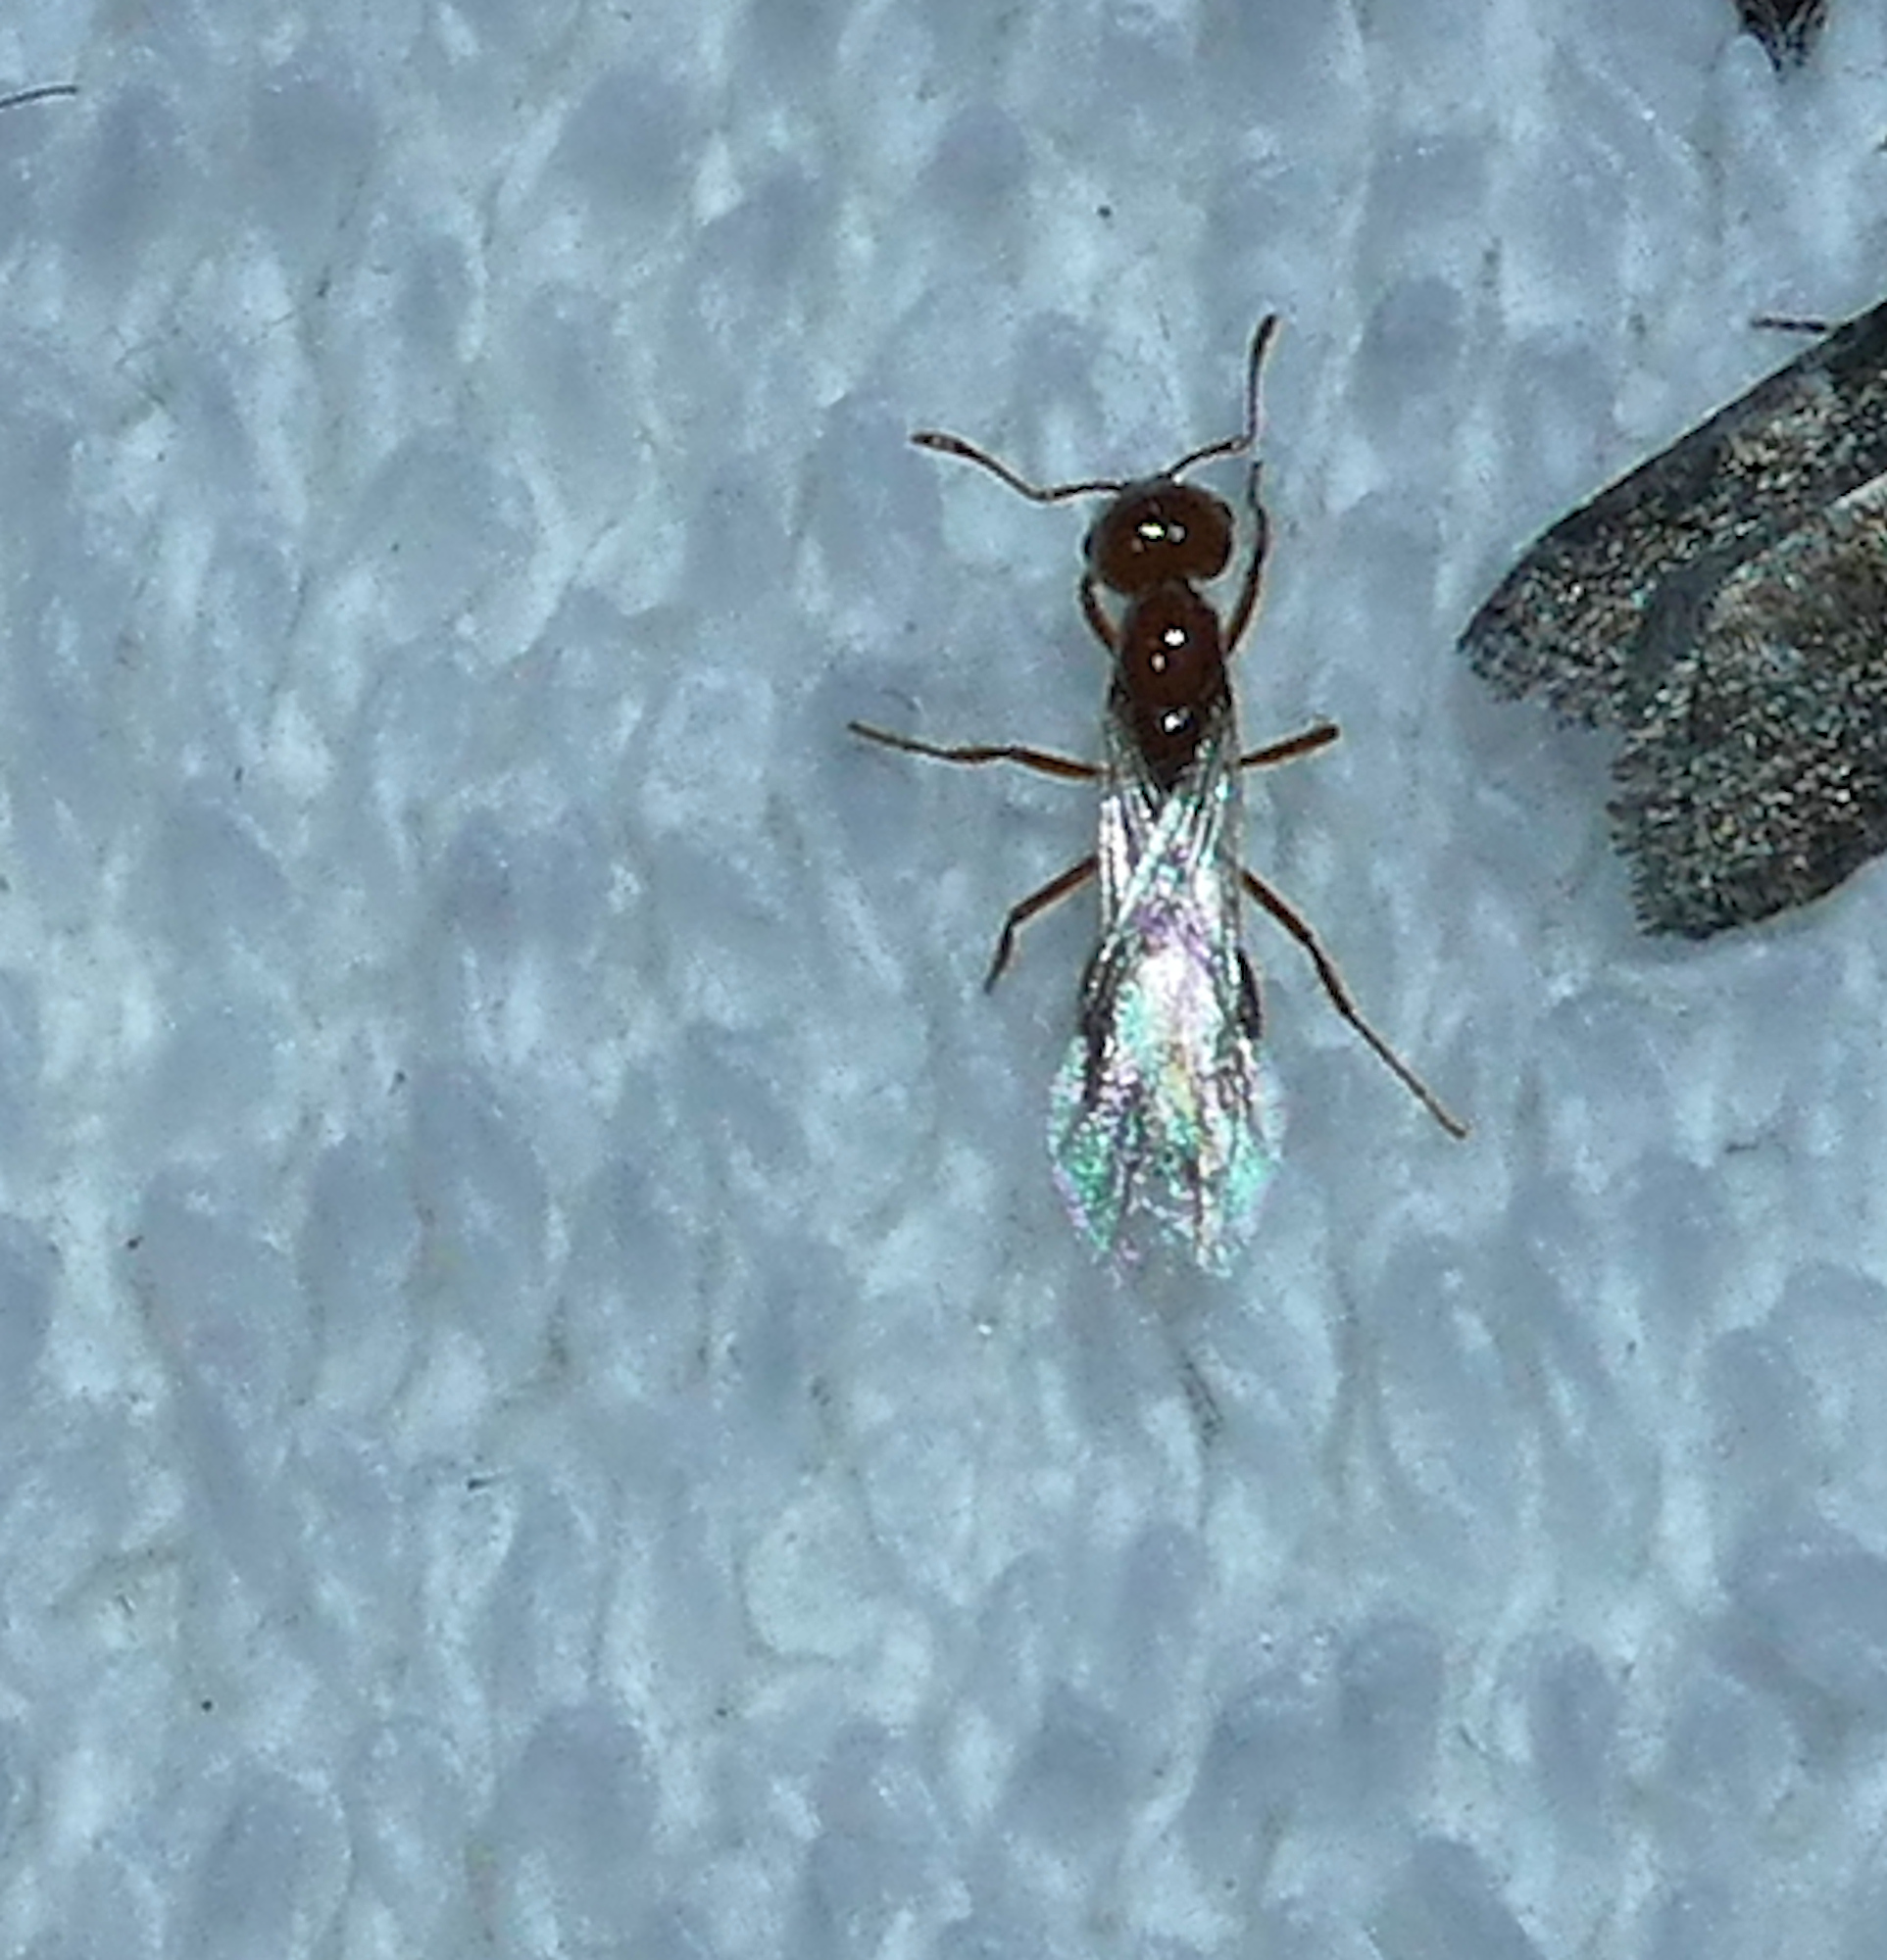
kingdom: Animalia
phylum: Arthropoda
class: Insecta
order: Hymenoptera
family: Formicidae
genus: Solenopsis
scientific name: Solenopsis amblychila
